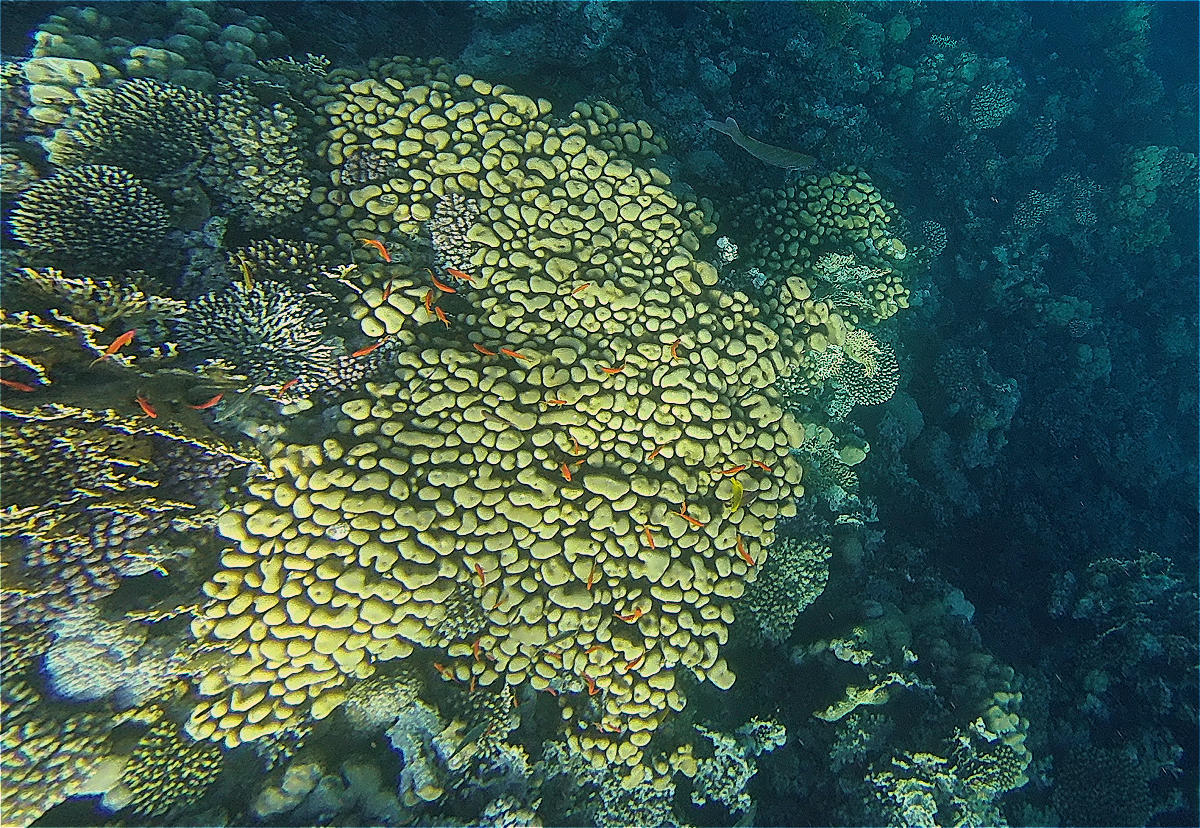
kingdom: Animalia
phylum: Cnidaria
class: Anthozoa
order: Scleractinia
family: Merulinidae
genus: Goniastrea
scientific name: Goniastrea stelligera
